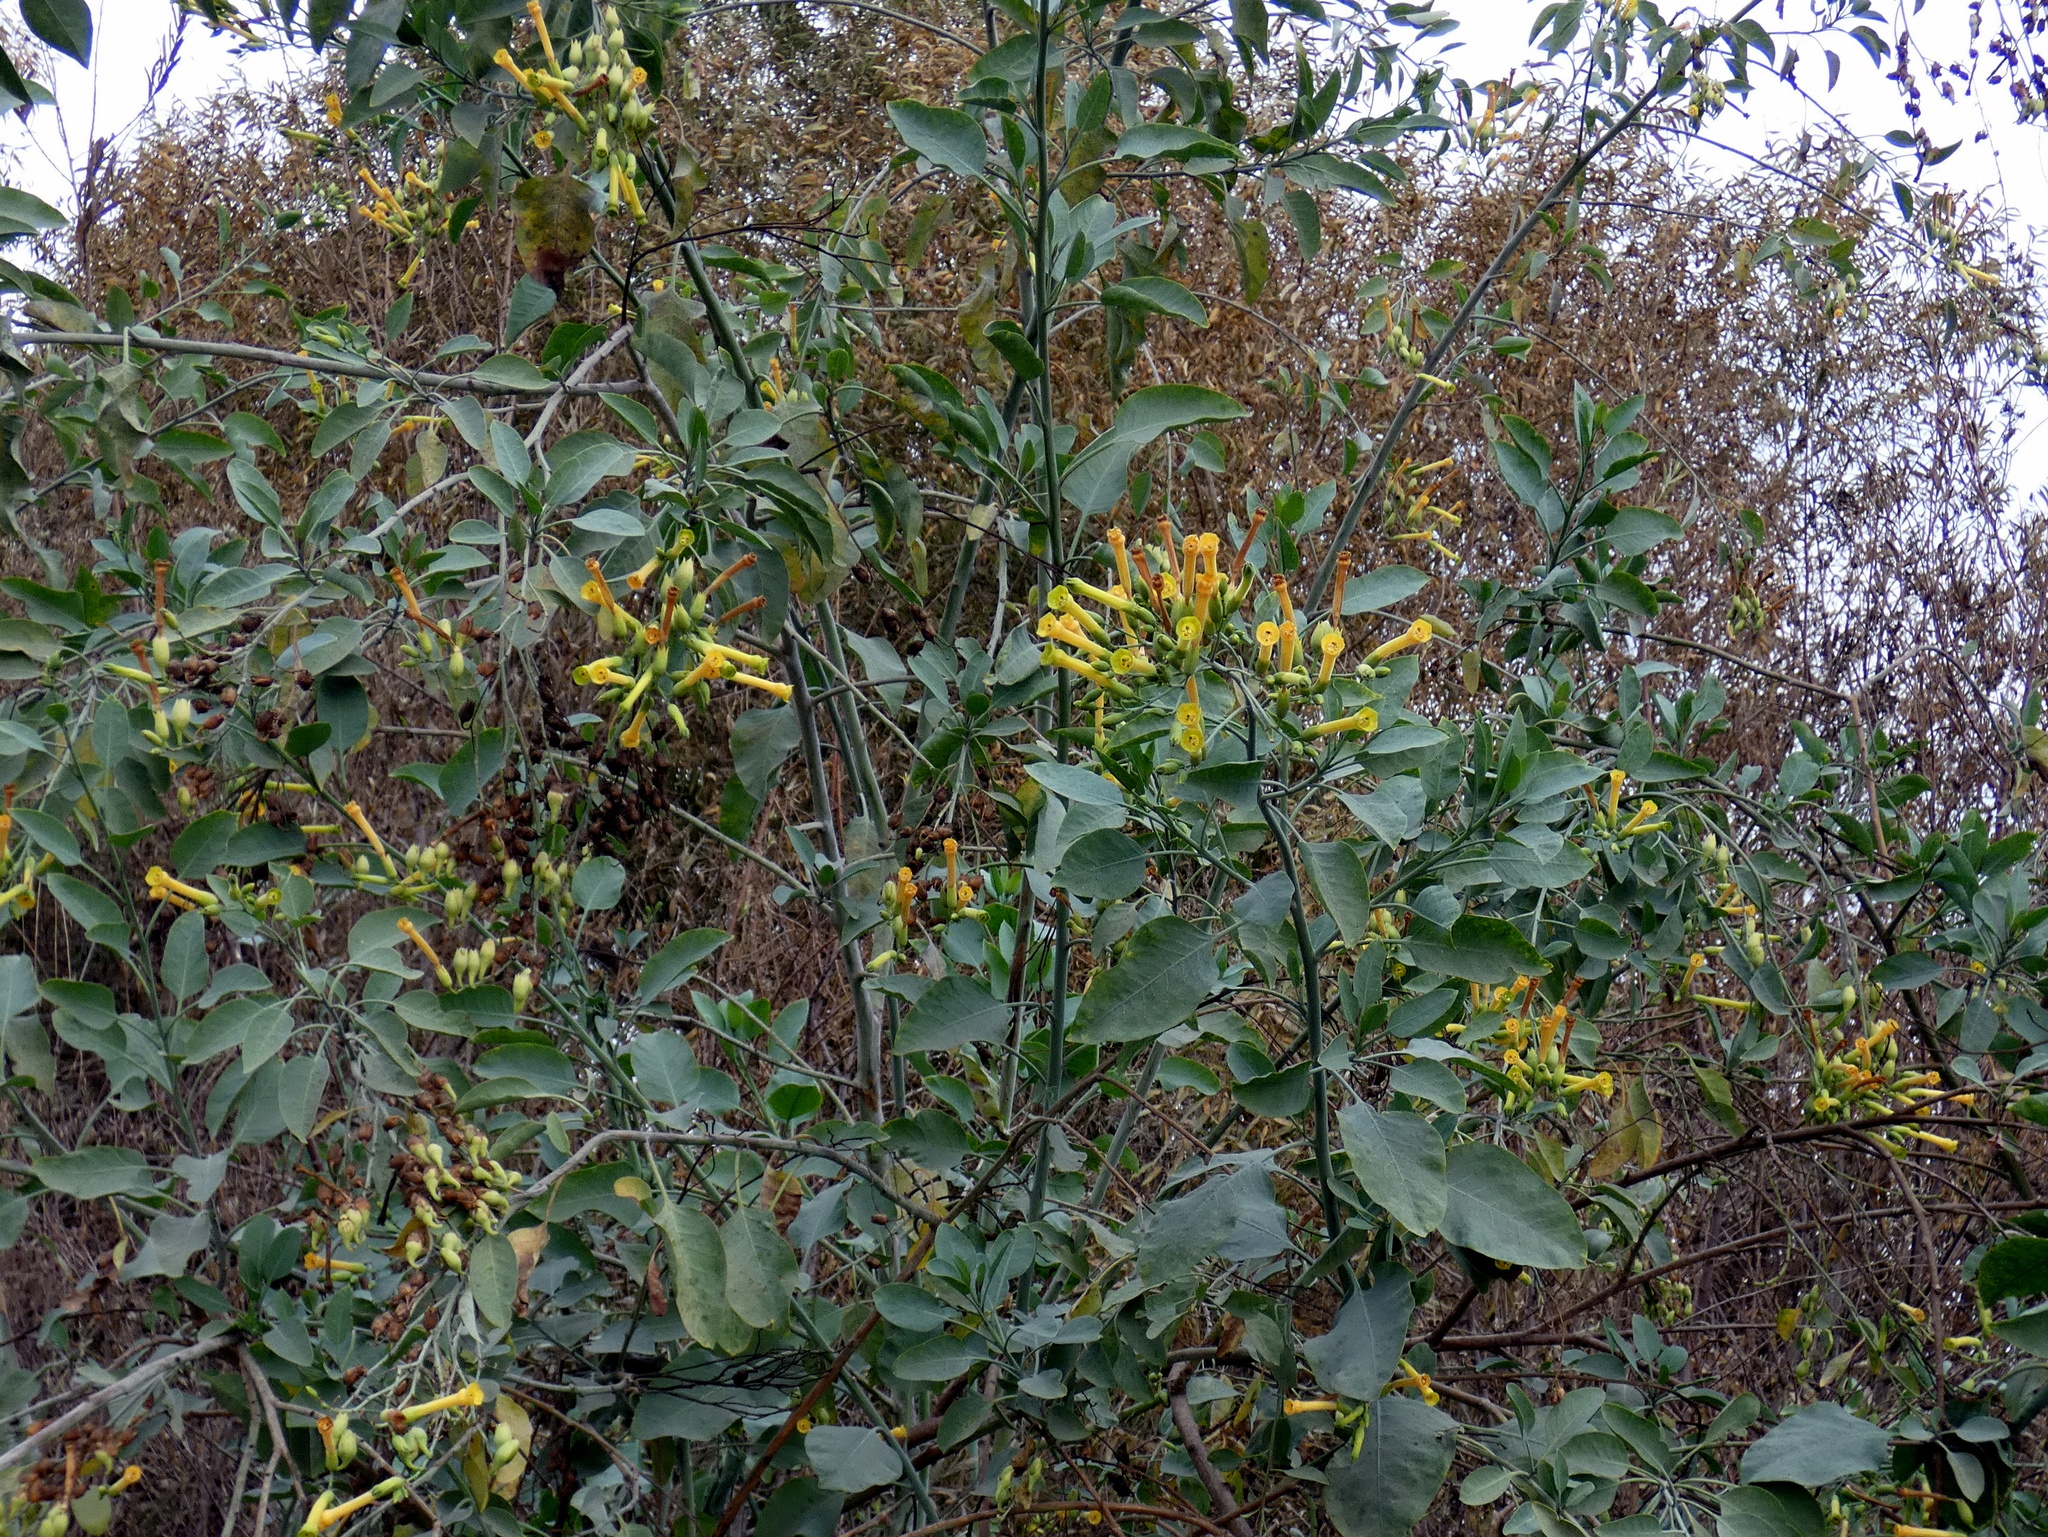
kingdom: Plantae
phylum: Tracheophyta
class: Magnoliopsida
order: Solanales
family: Solanaceae
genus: Nicotiana
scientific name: Nicotiana glauca
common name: Tree tobacco
